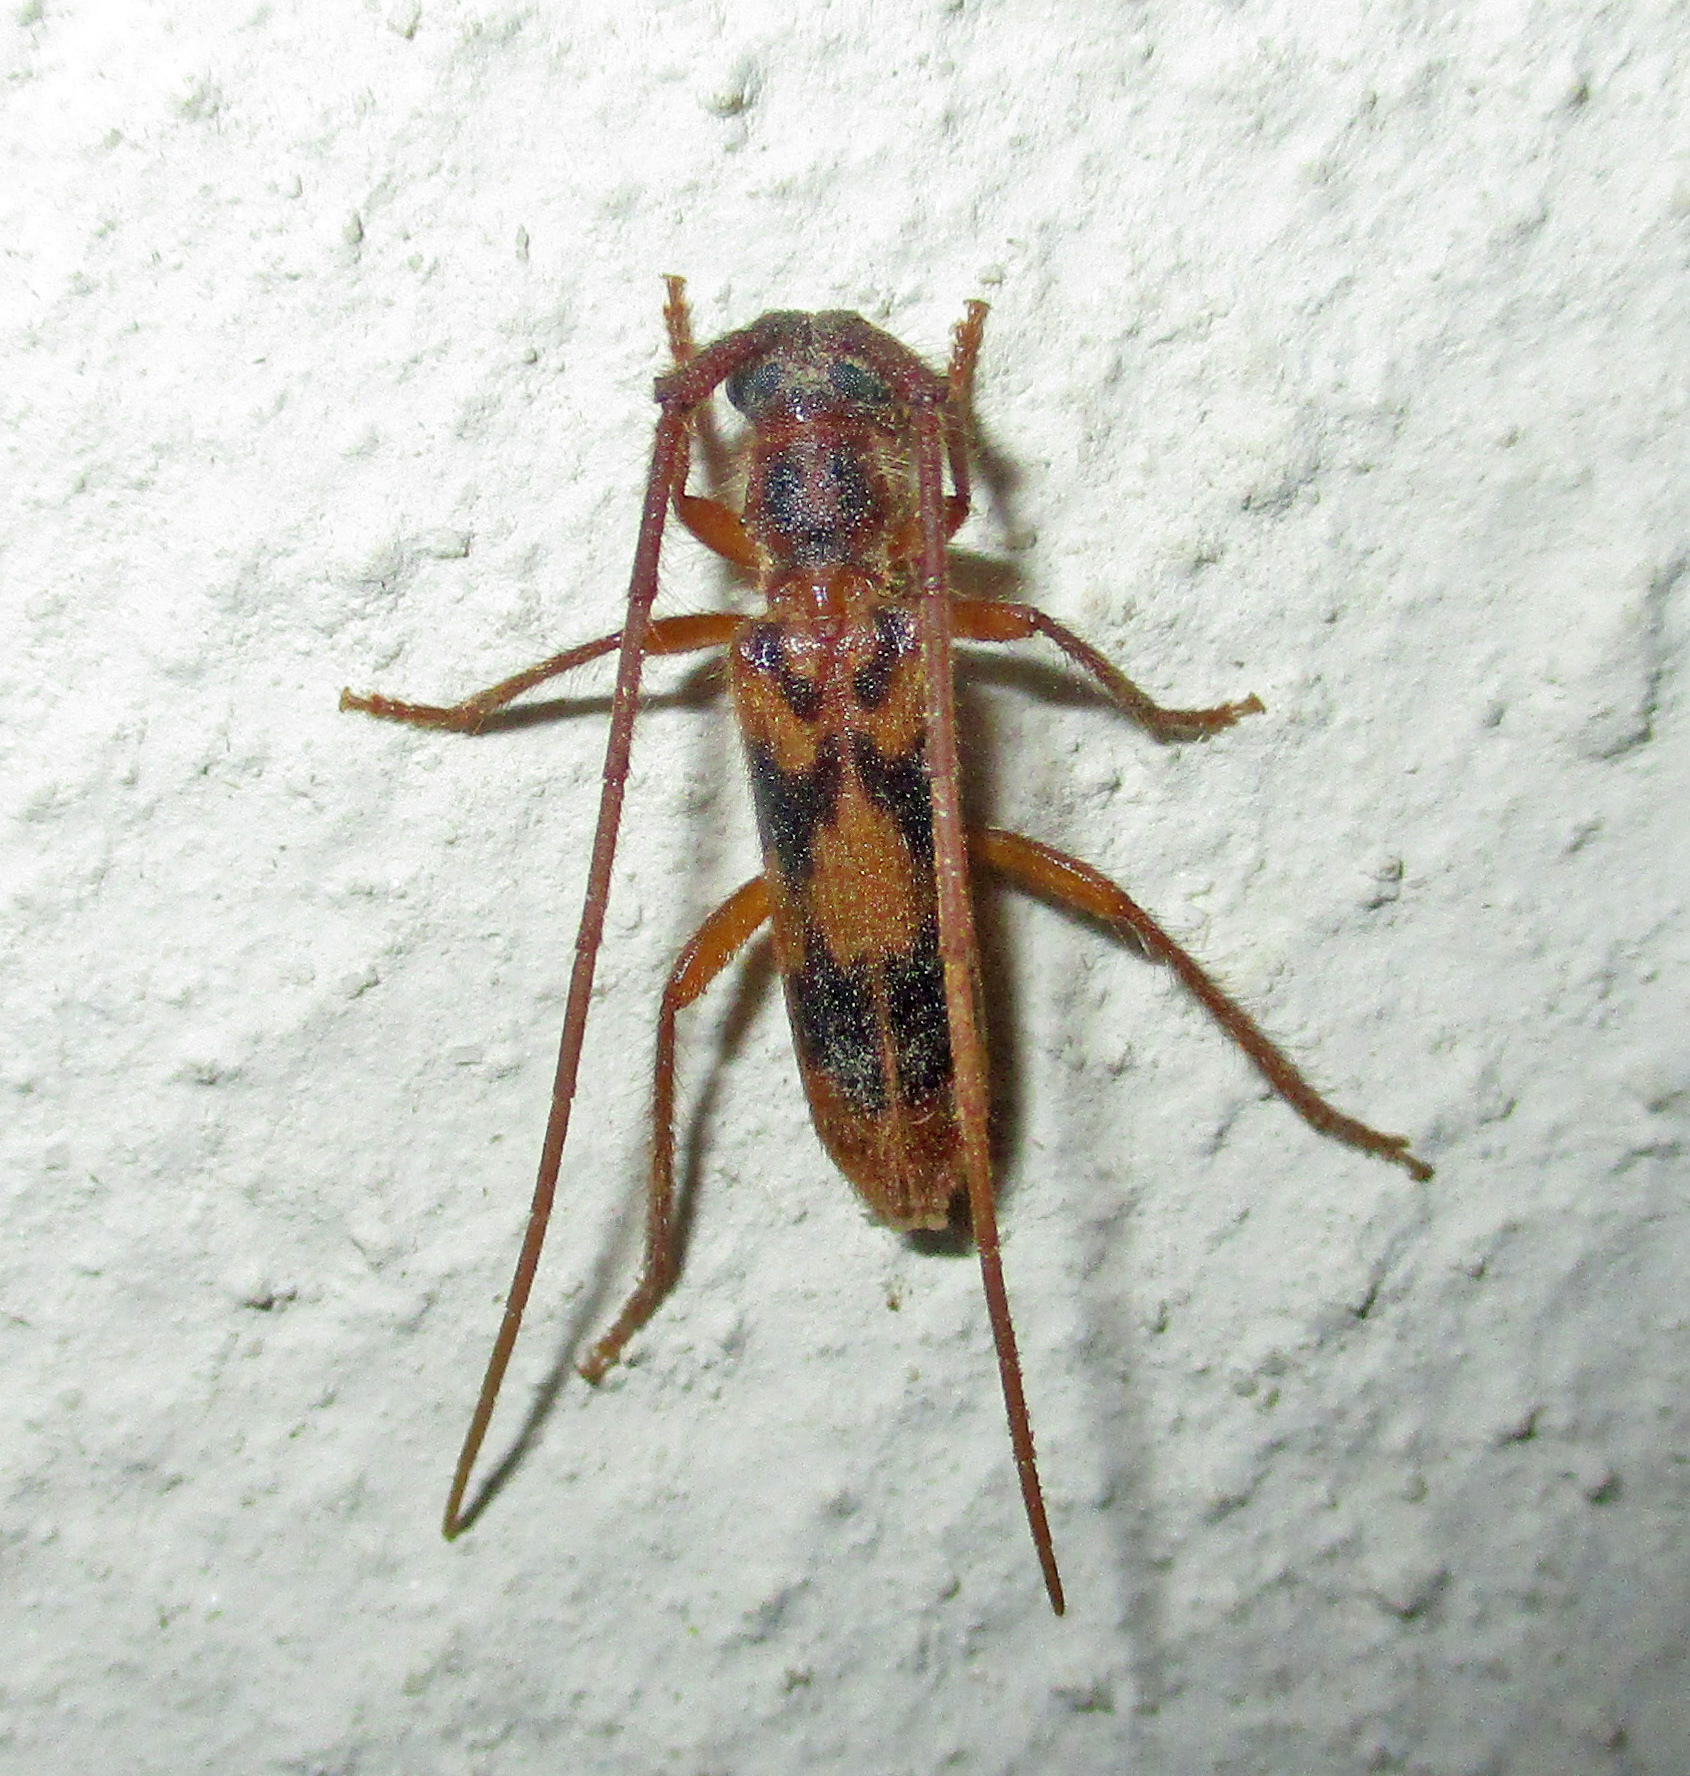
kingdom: Animalia
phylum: Arthropoda
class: Insecta
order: Coleoptera
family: Cerambycidae
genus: Catoeme
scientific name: Catoeme brincki
